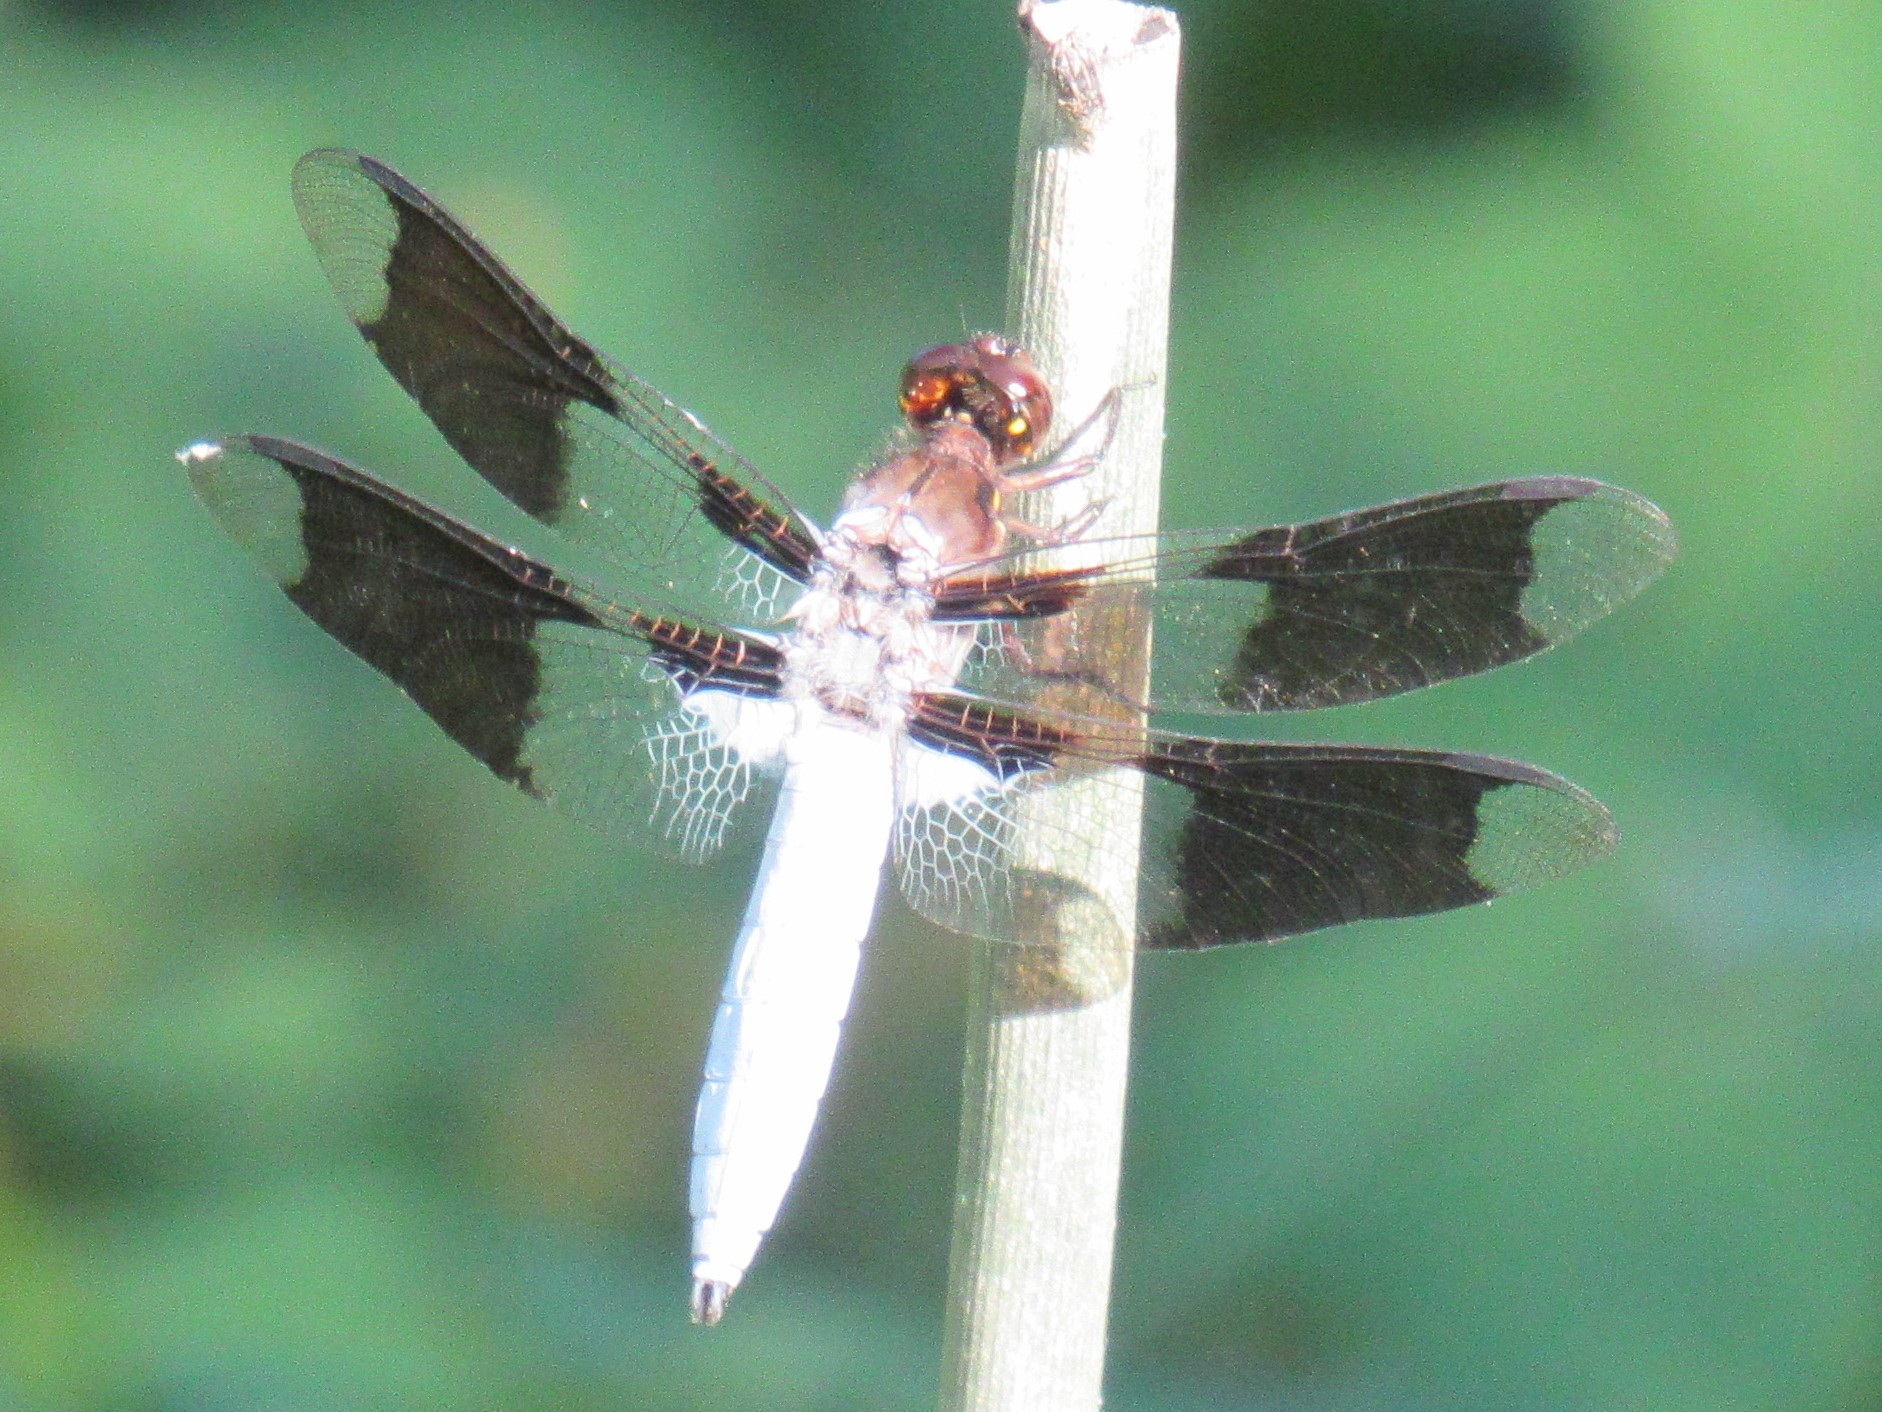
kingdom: Animalia
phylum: Arthropoda
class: Insecta
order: Odonata
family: Libellulidae
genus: Plathemis
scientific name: Plathemis lydia
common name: Common whitetail
